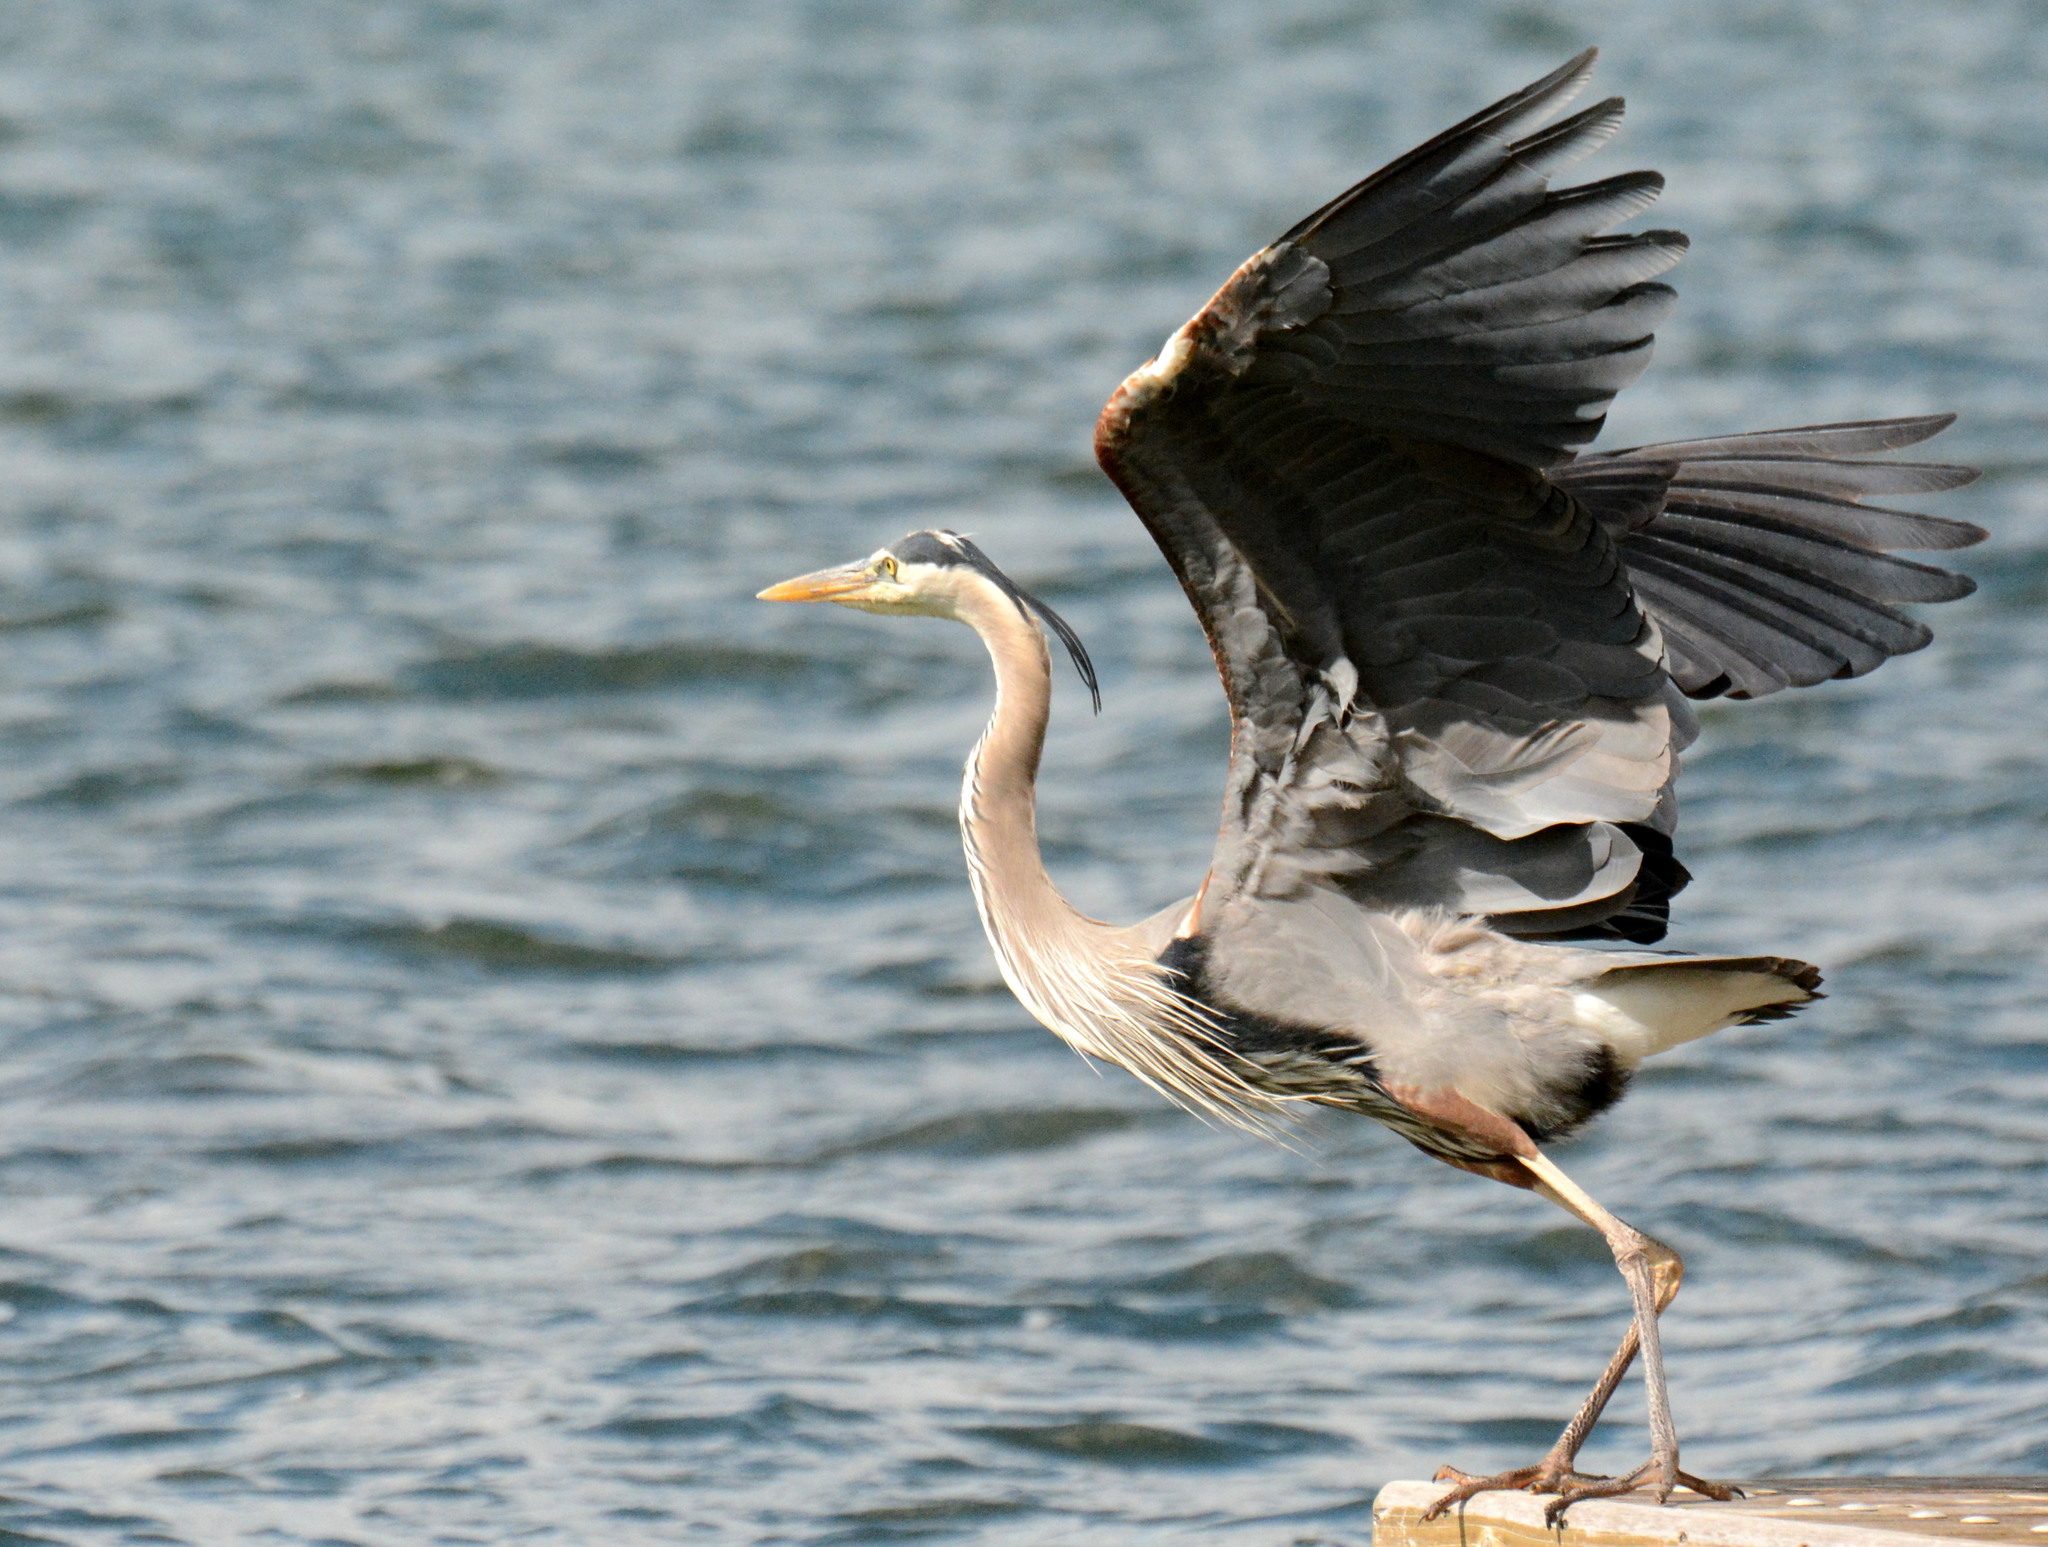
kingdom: Animalia
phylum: Chordata
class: Aves
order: Pelecaniformes
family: Ardeidae
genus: Ardea
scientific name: Ardea herodias
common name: Great blue heron
